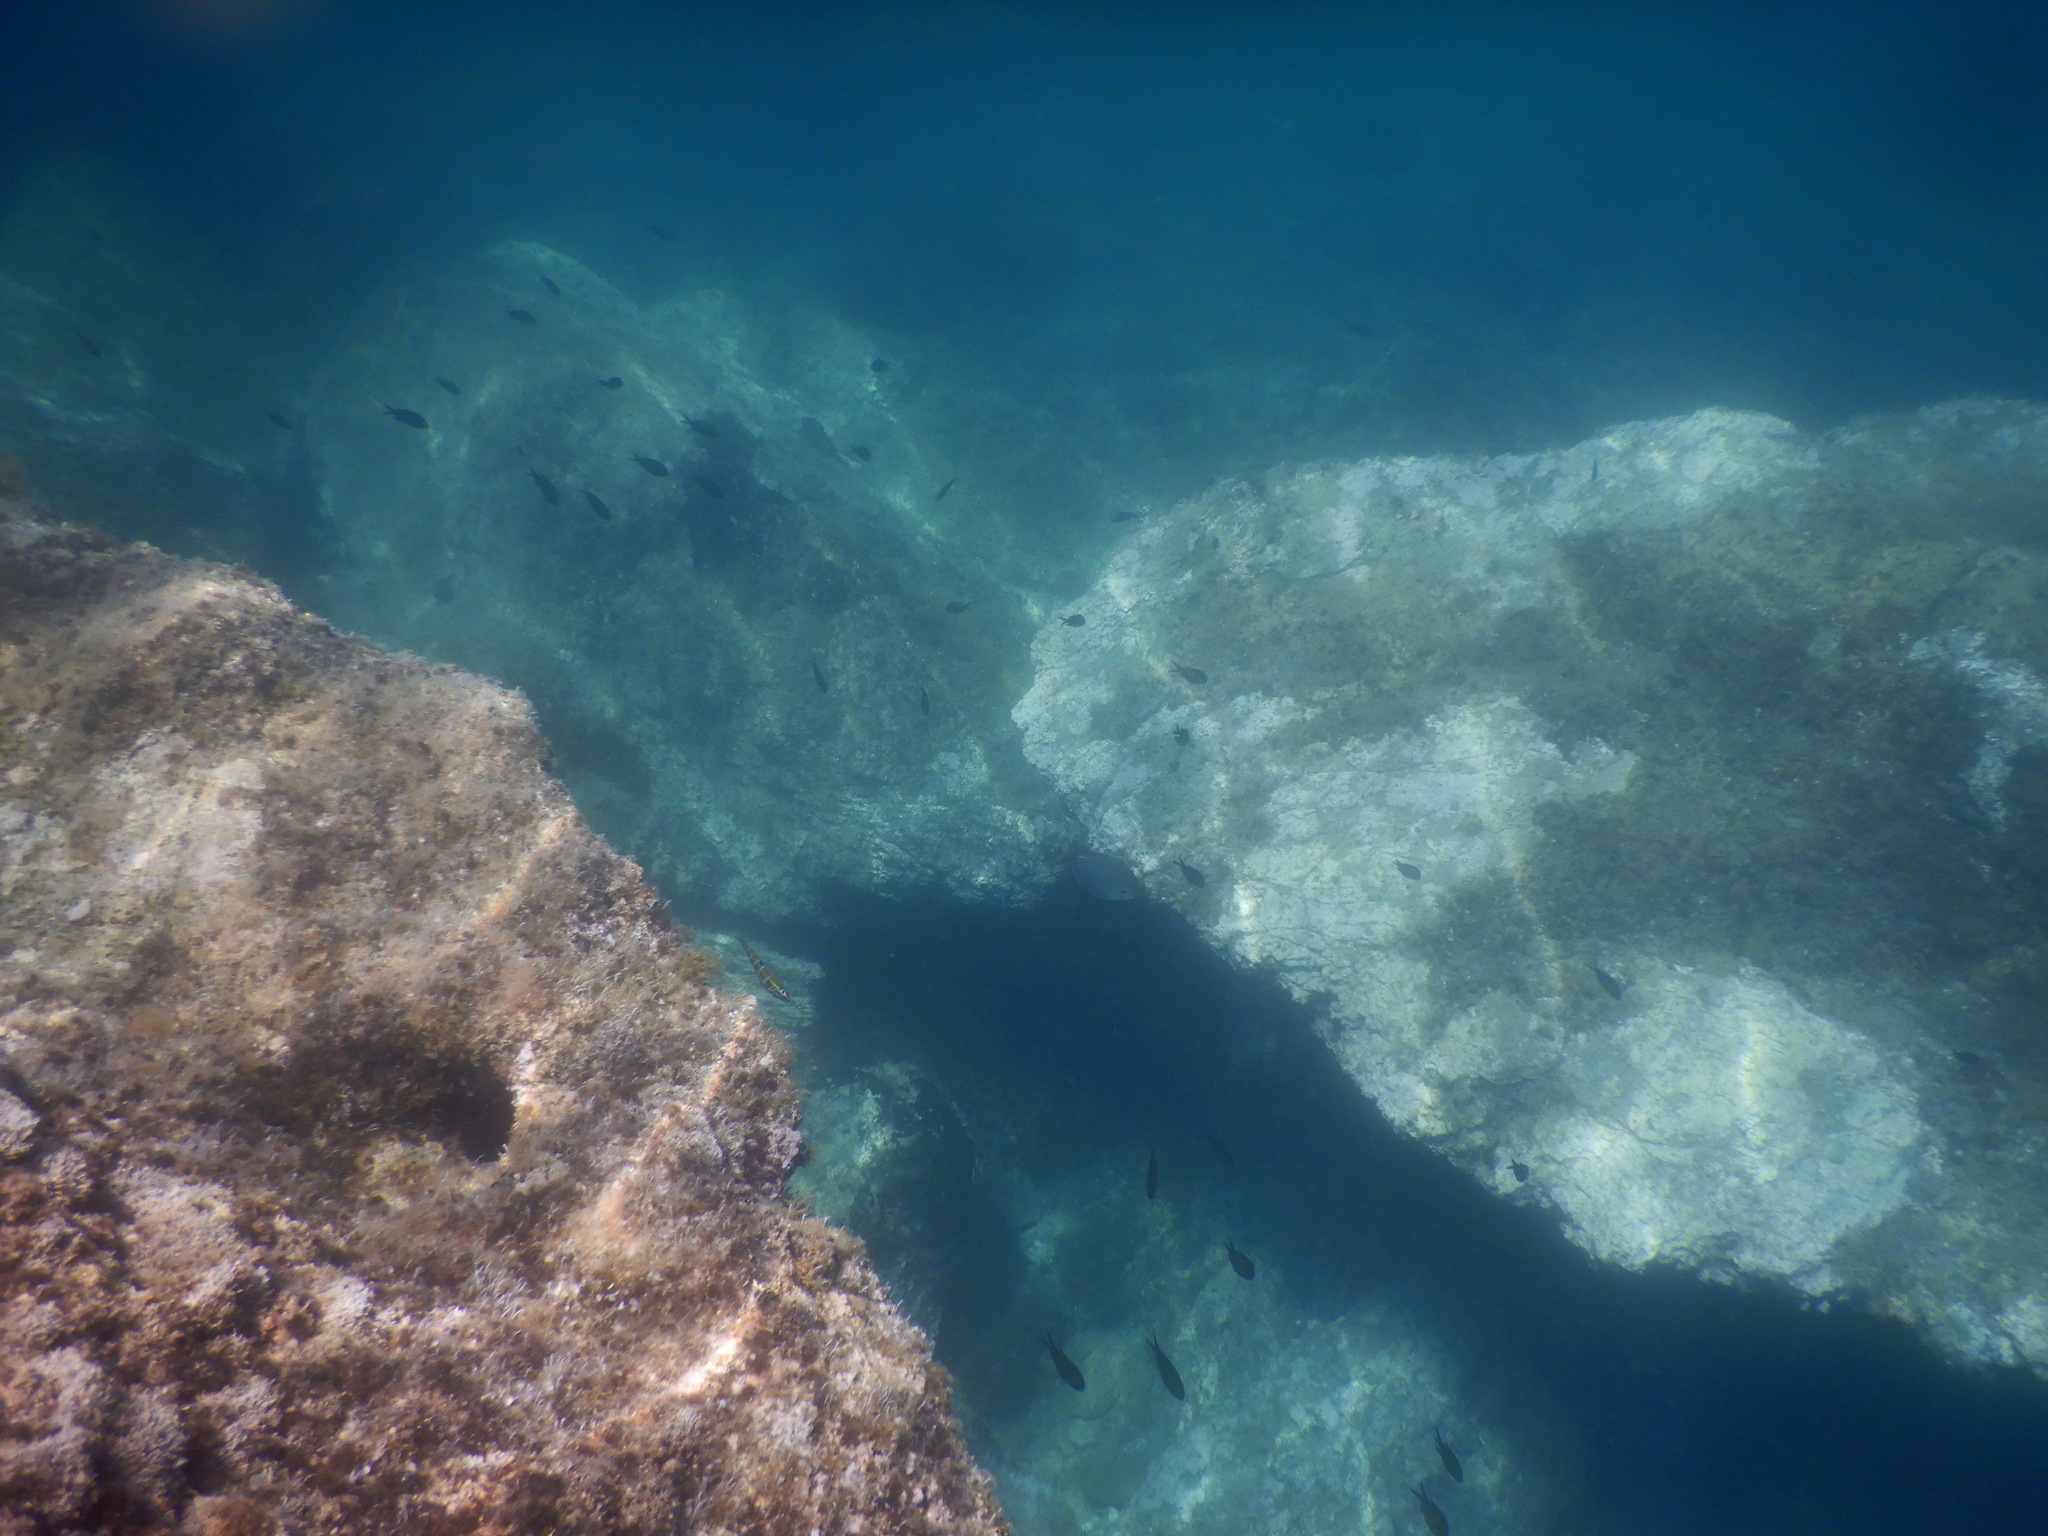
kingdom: Animalia
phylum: Chordata
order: Perciformes
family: Labridae
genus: Thalassoma
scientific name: Thalassoma pavo
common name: Ornate wrasse
